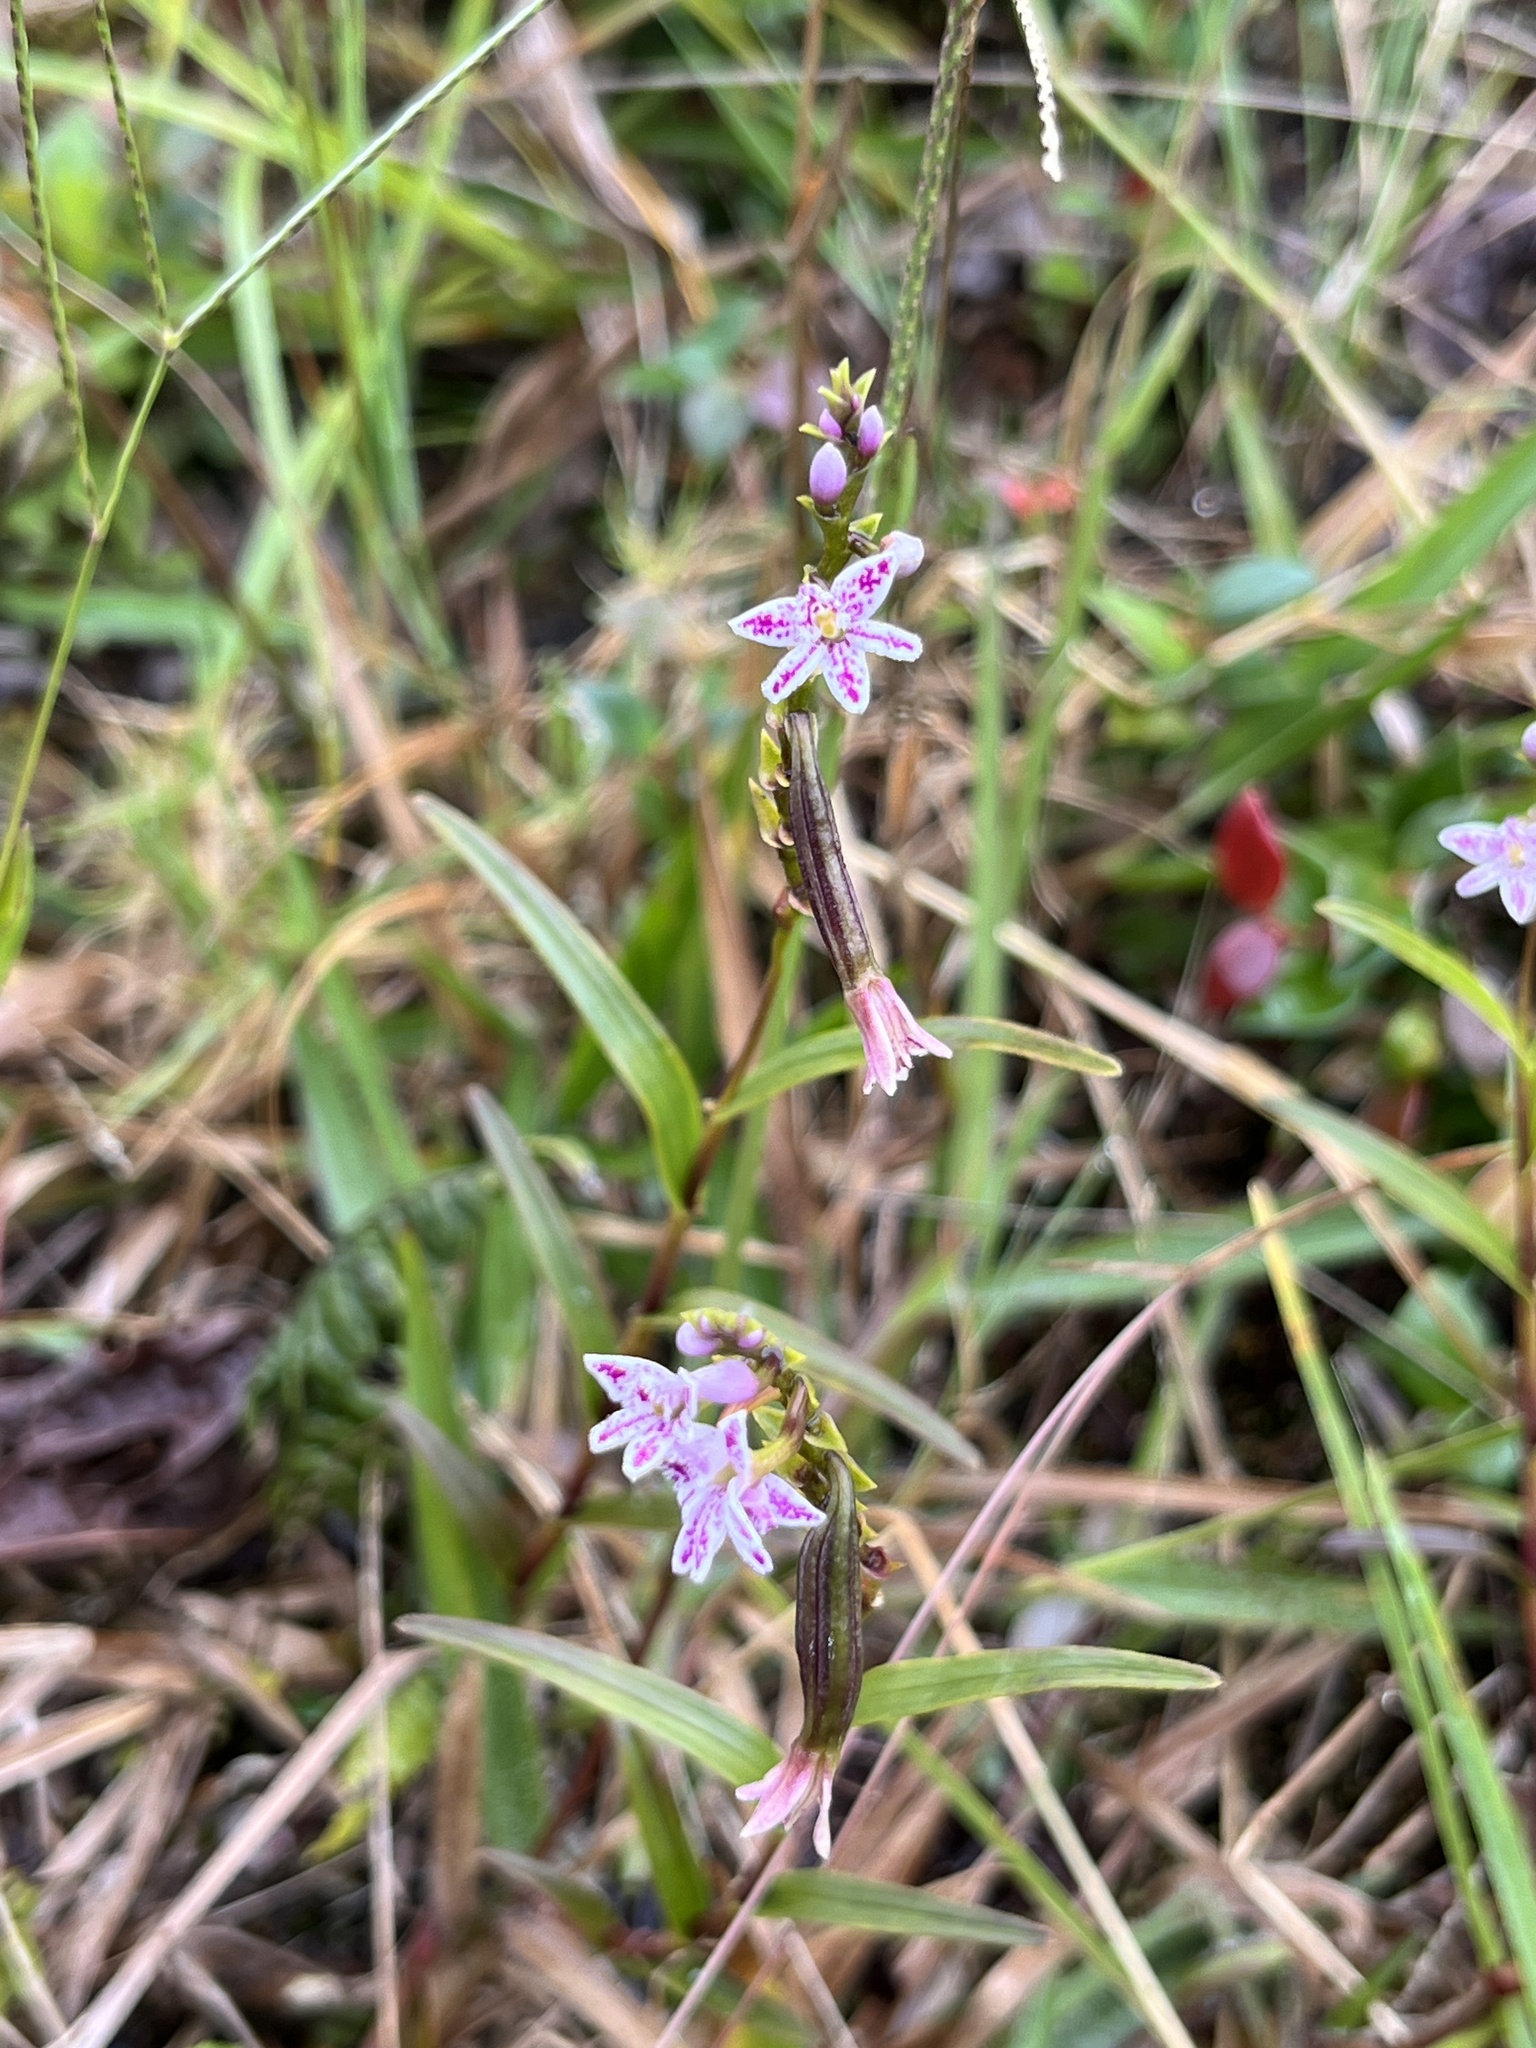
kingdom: Plantae
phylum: Tracheophyta
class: Liliopsida
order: Asparagales
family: Orchidaceae
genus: Epidendrum
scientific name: Epidendrum fimbriatum
